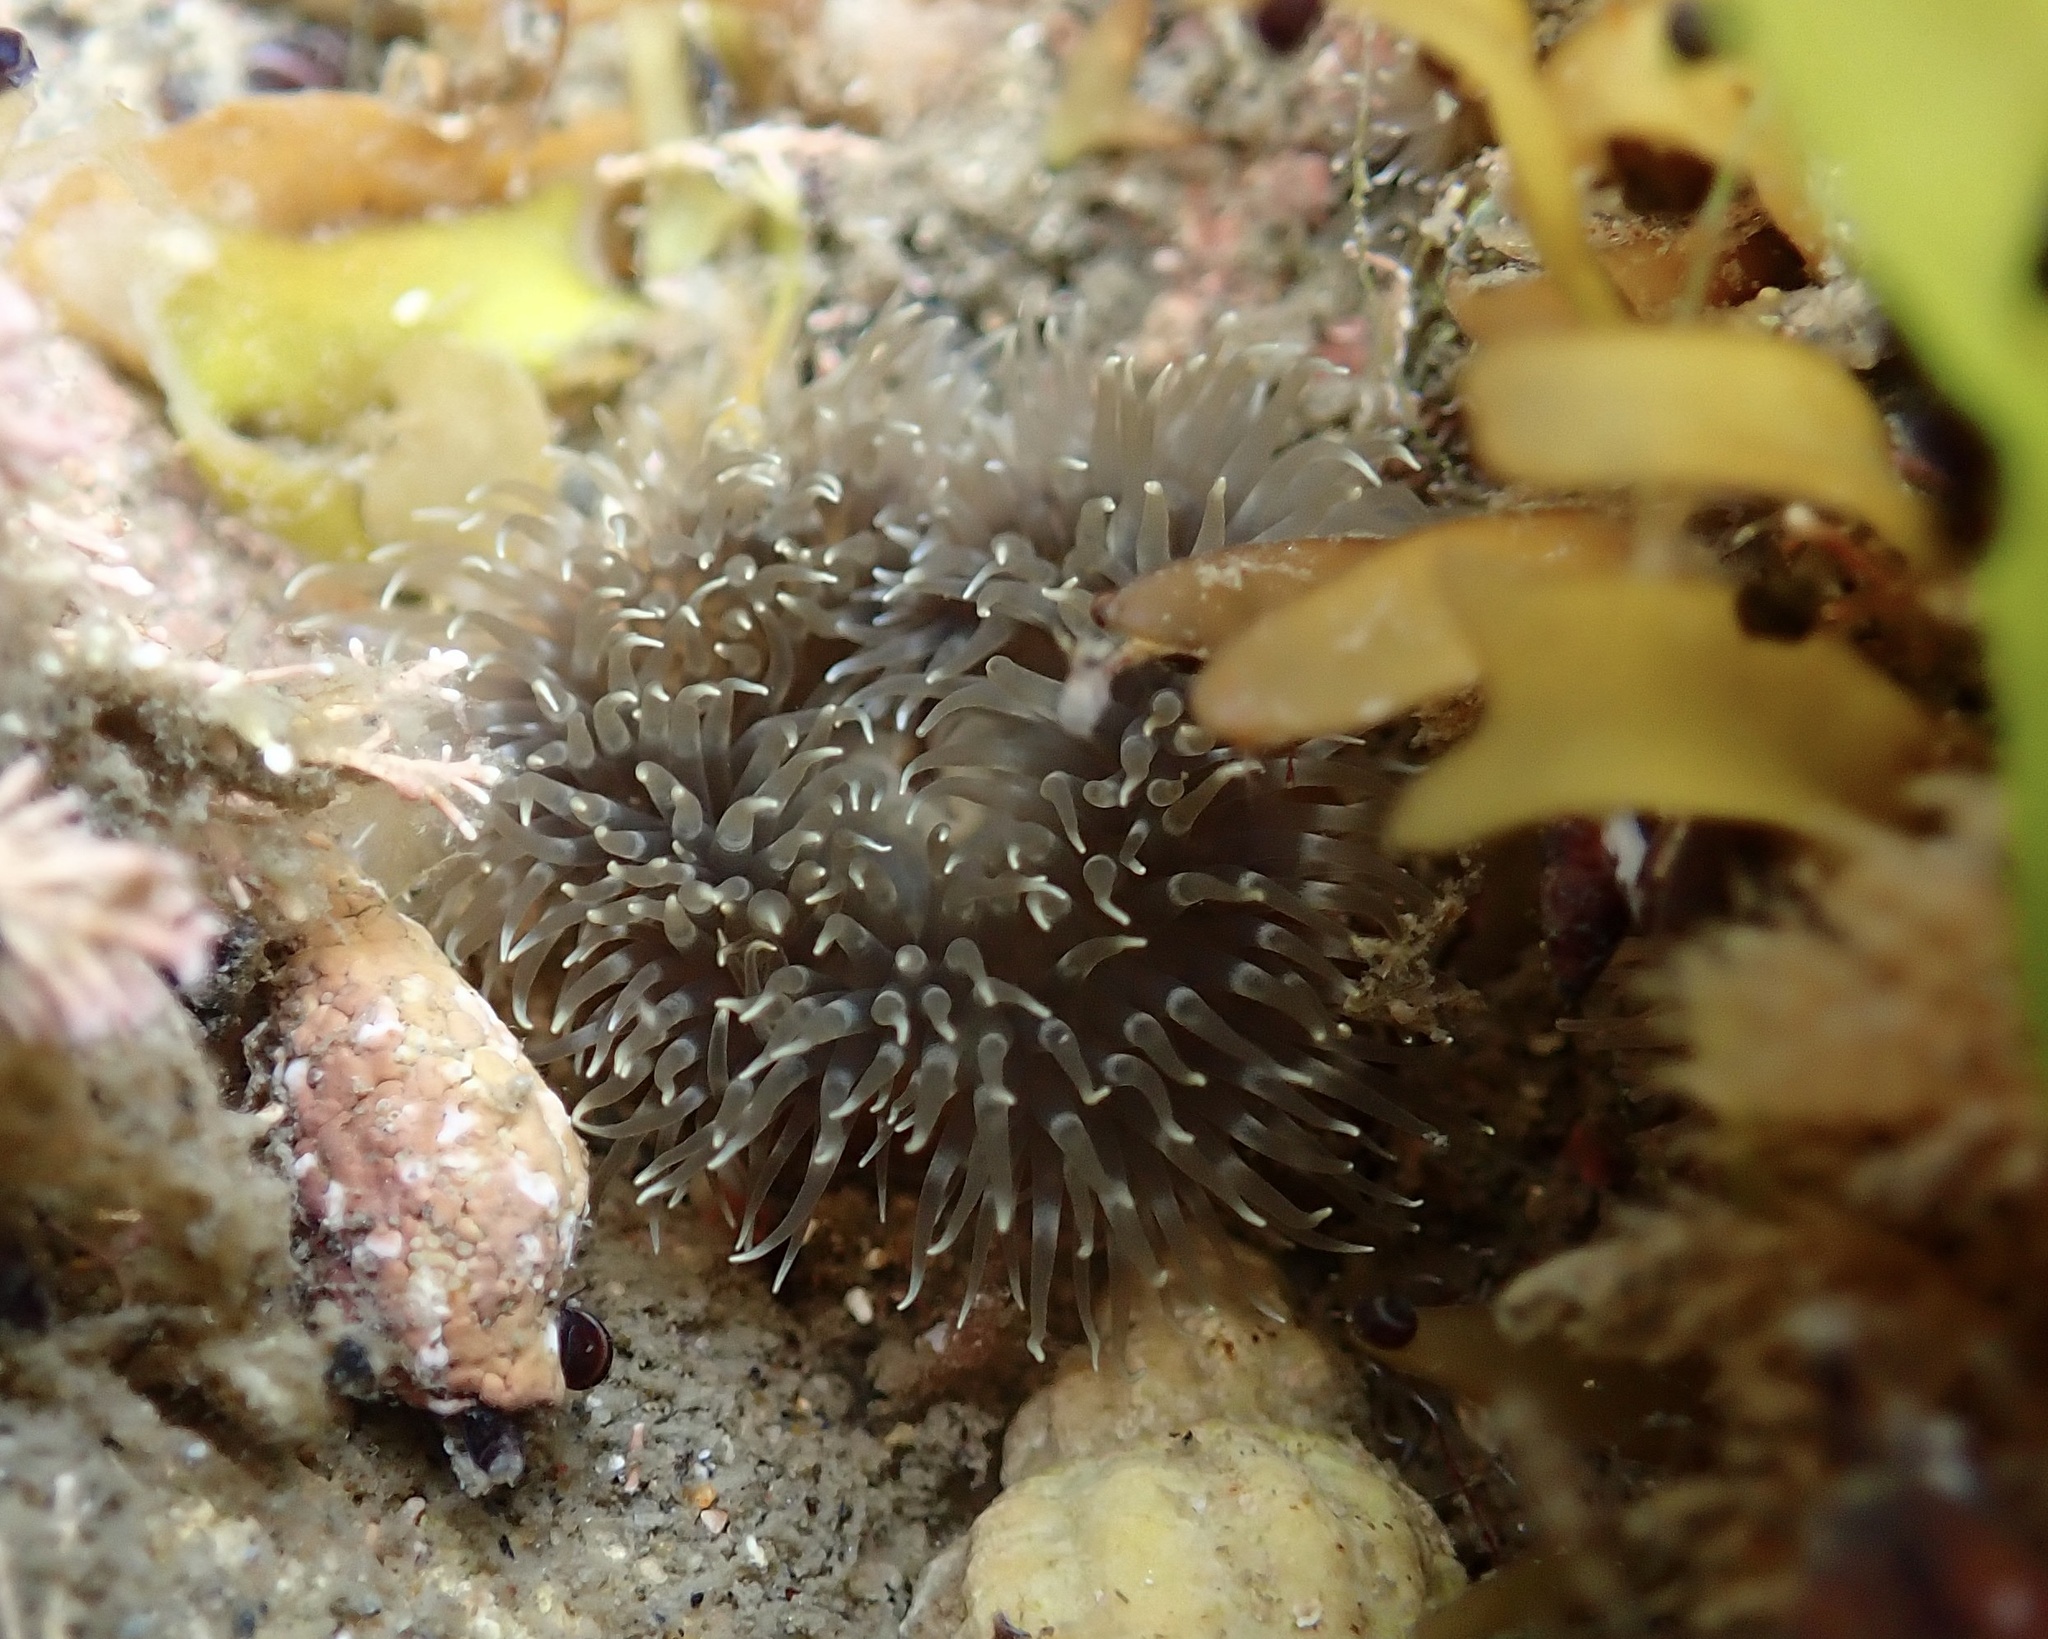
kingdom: Animalia
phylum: Cnidaria
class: Anthozoa
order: Actiniaria
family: Metridiidae
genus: Metridium
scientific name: Metridium senile
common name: Clonal plumose anemone
